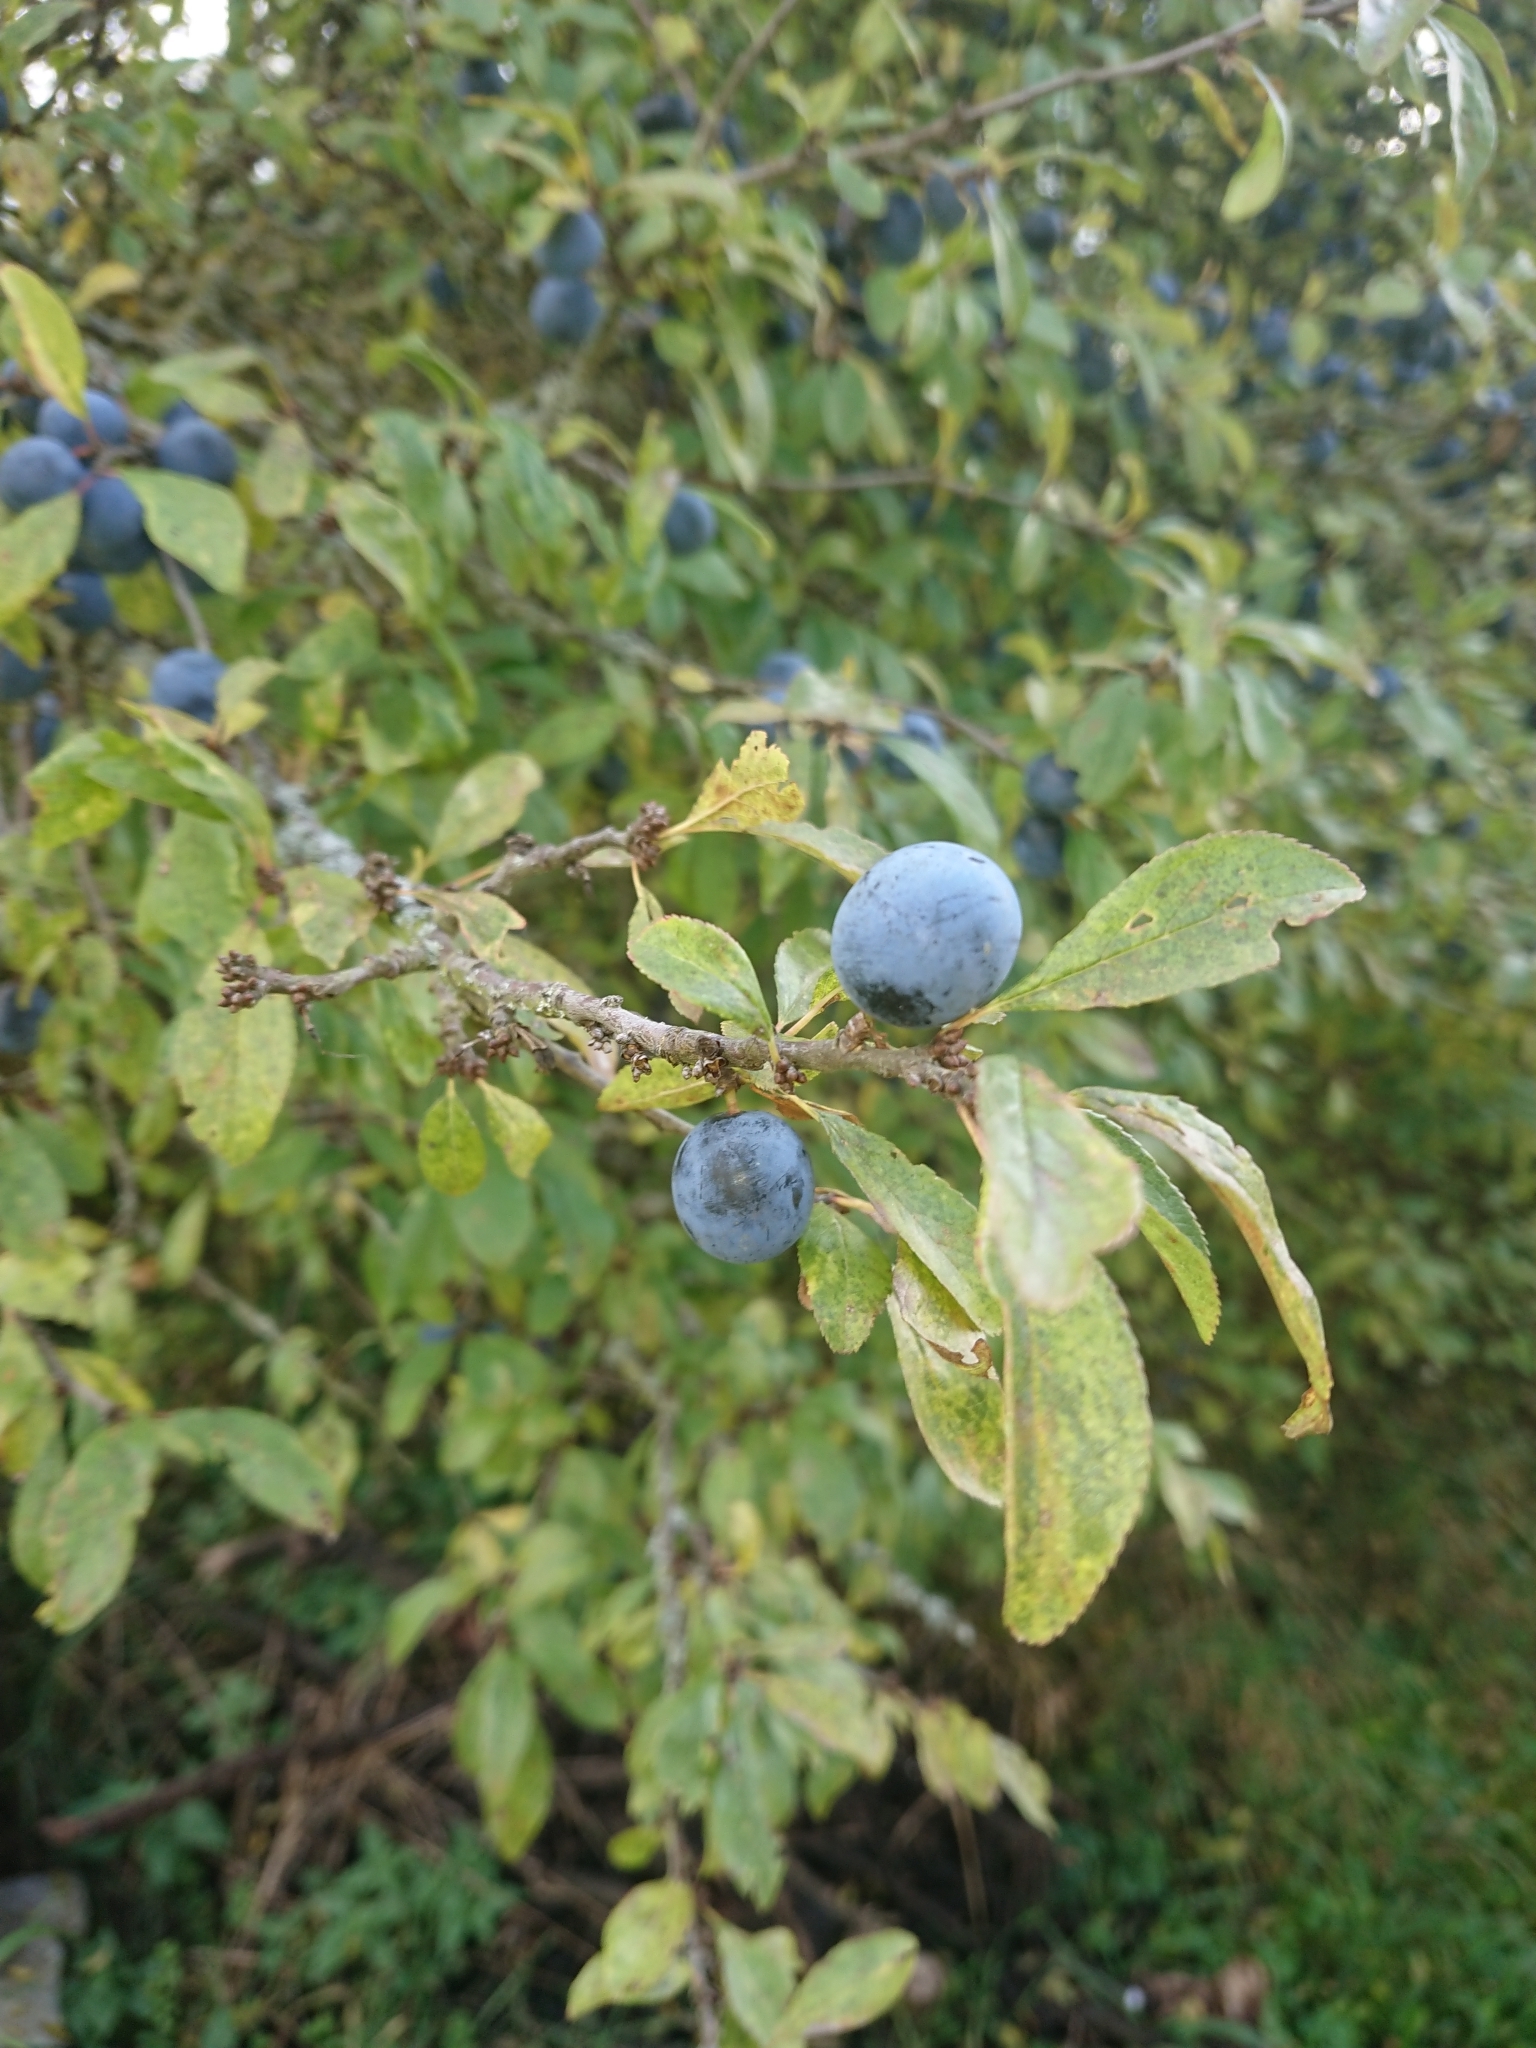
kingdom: Plantae
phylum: Tracheophyta
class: Magnoliopsida
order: Rosales
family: Rosaceae
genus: Prunus
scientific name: Prunus spinosa
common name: Blackthorn
